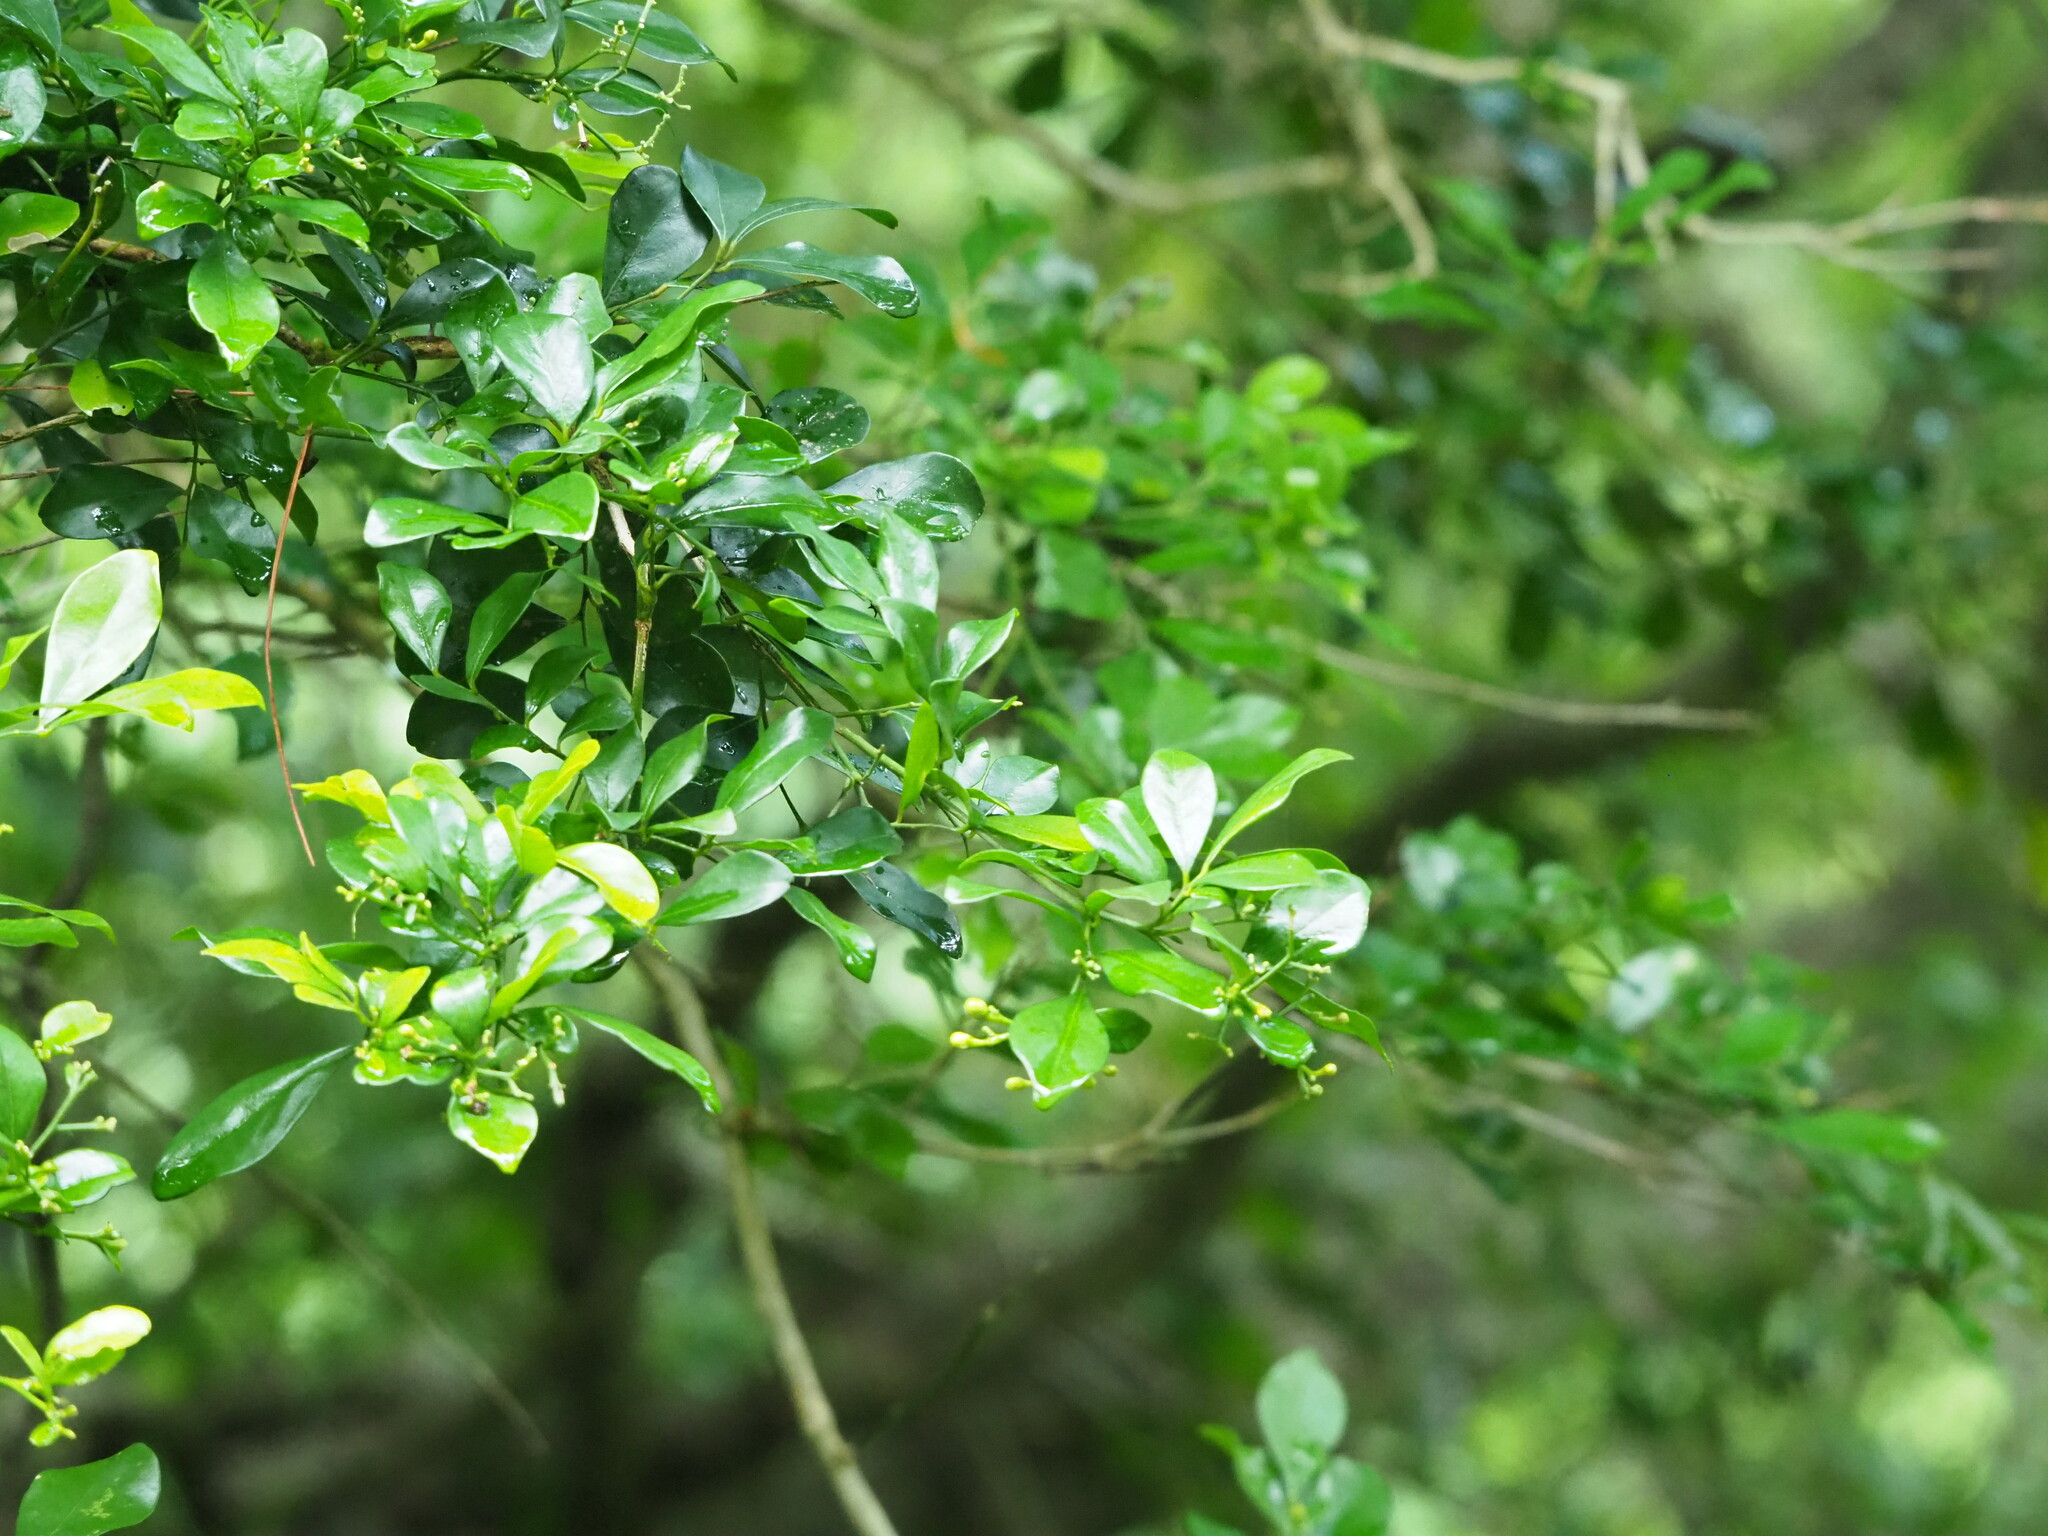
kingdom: Plantae
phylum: Tracheophyta
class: Magnoliopsida
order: Sapindales
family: Rutaceae
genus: Murraya
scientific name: Murraya paniculata
